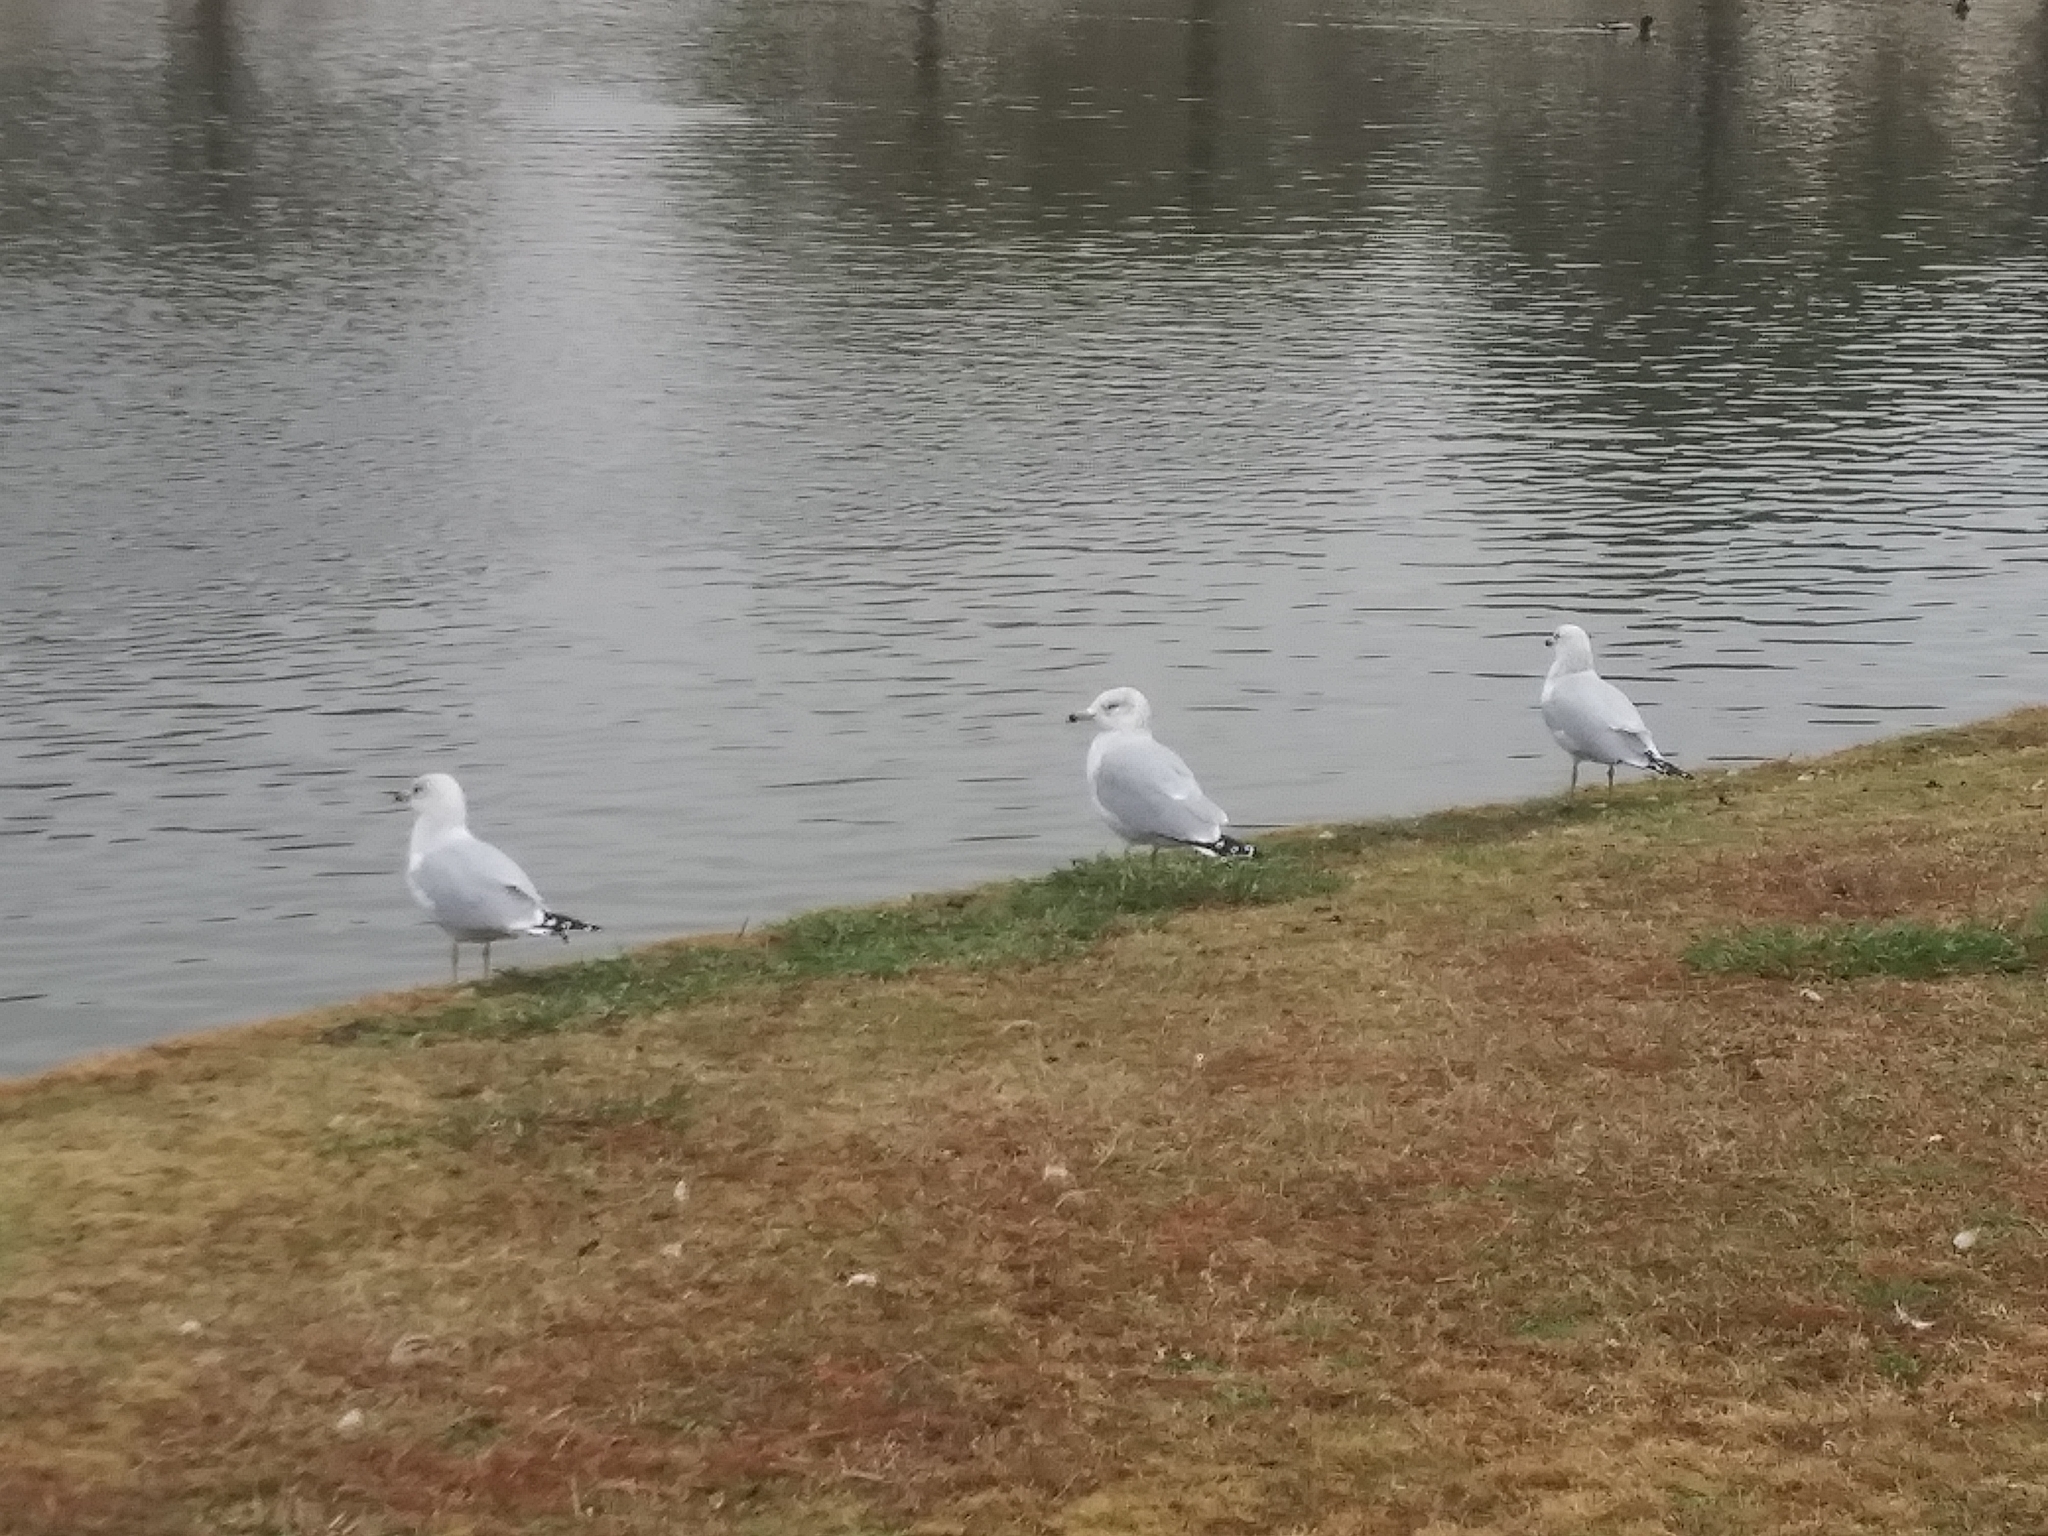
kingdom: Animalia
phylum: Chordata
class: Aves
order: Charadriiformes
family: Laridae
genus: Larus
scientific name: Larus delawarensis
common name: Ring-billed gull
